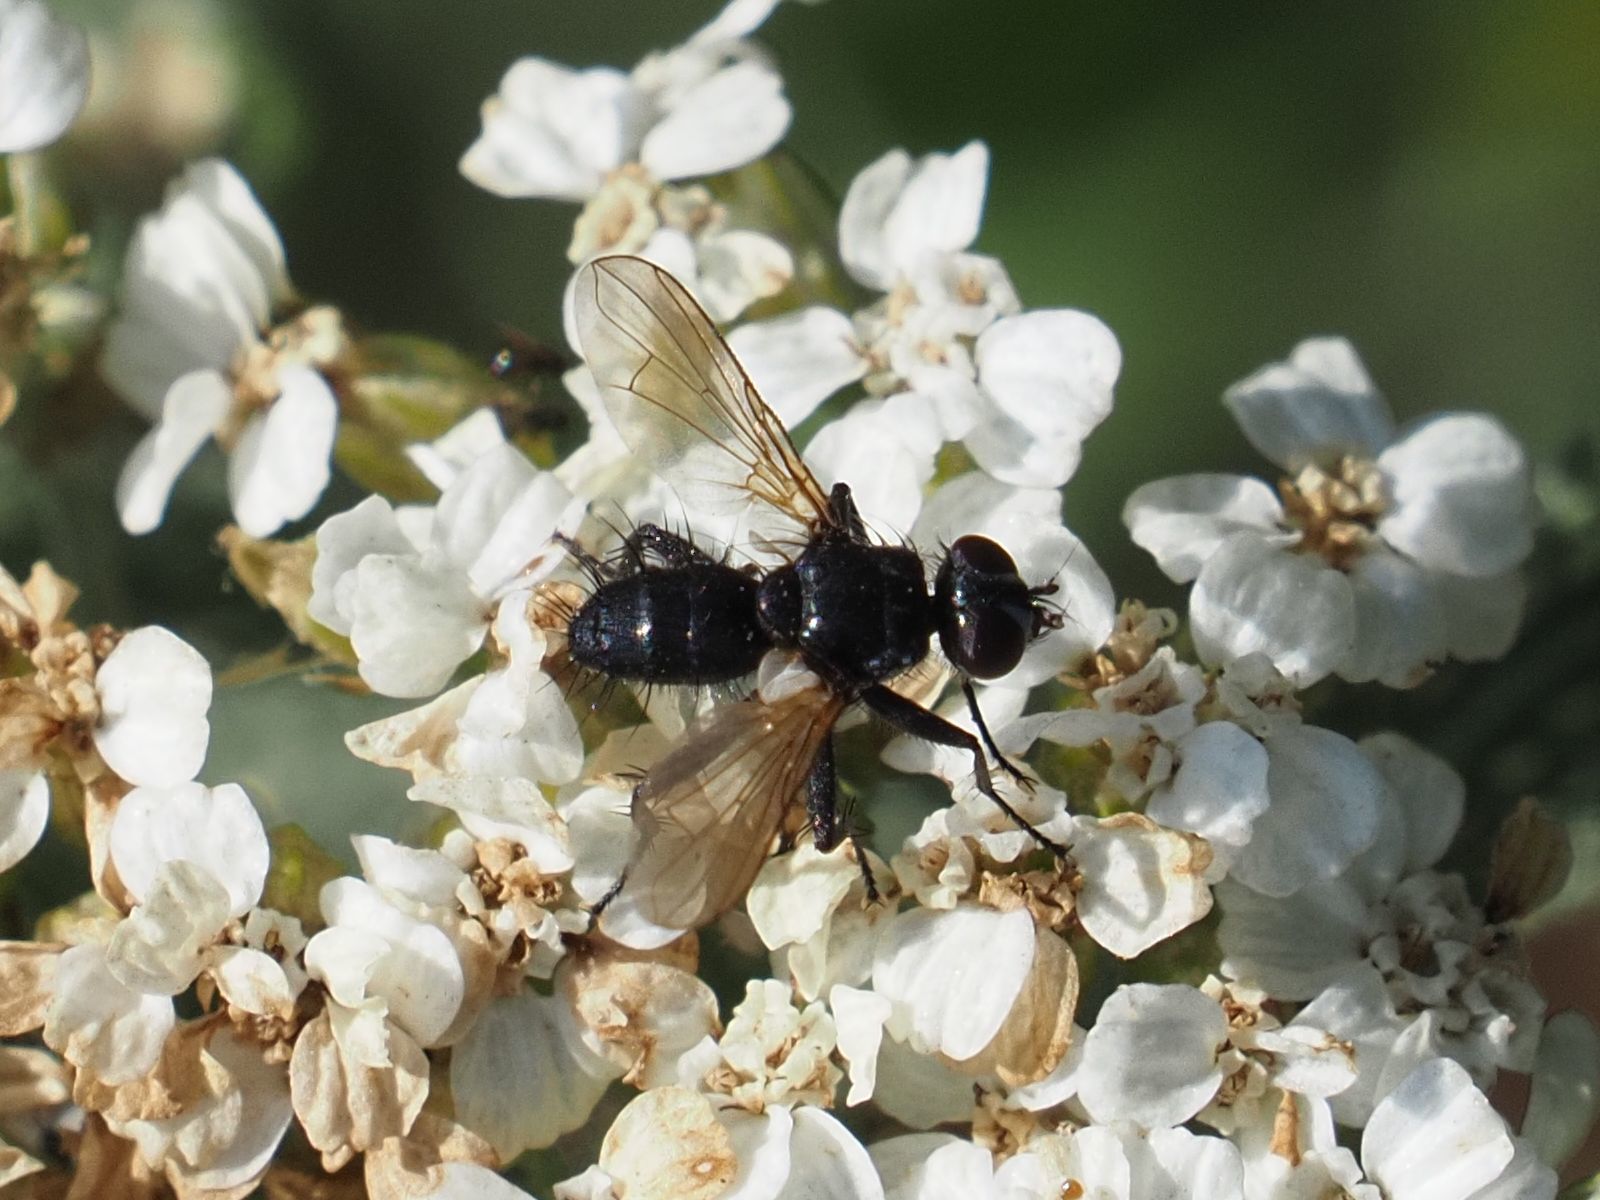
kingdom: Animalia
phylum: Arthropoda
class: Insecta
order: Diptera
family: Tachinidae
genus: Phania
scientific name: Phania funesta
